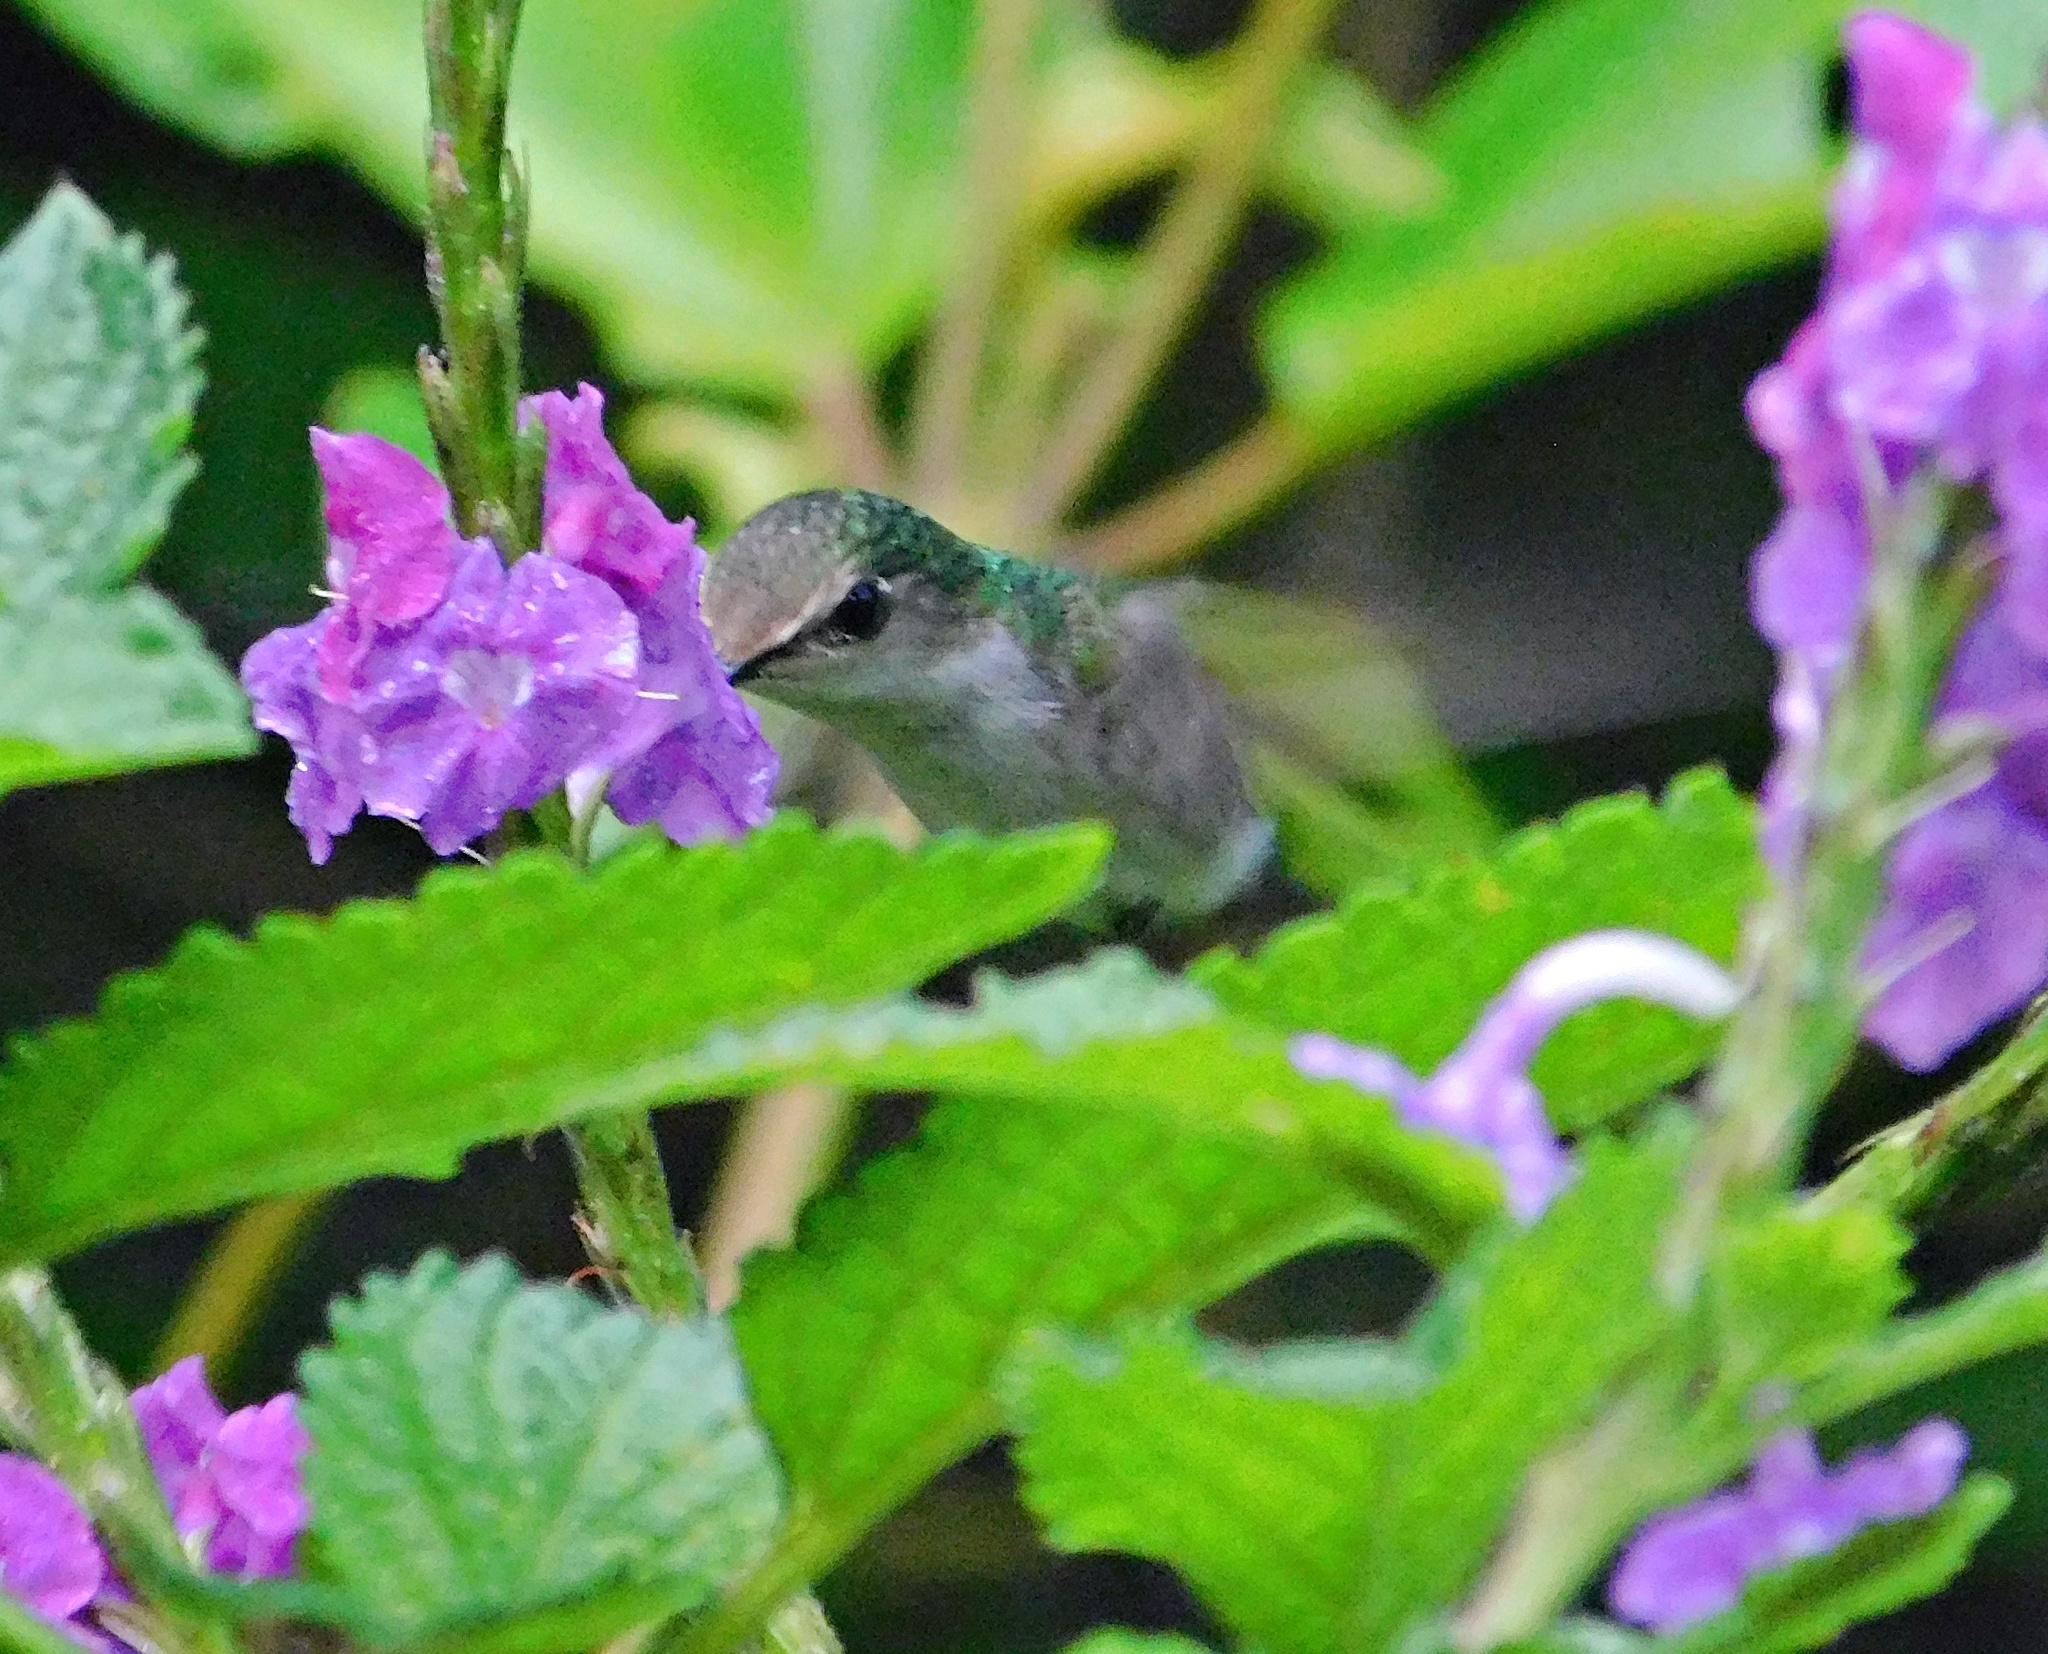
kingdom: Animalia
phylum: Chordata
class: Aves
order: Apodiformes
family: Trochilidae
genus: Microchera
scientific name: Microchera albocoronata
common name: Snowcap
